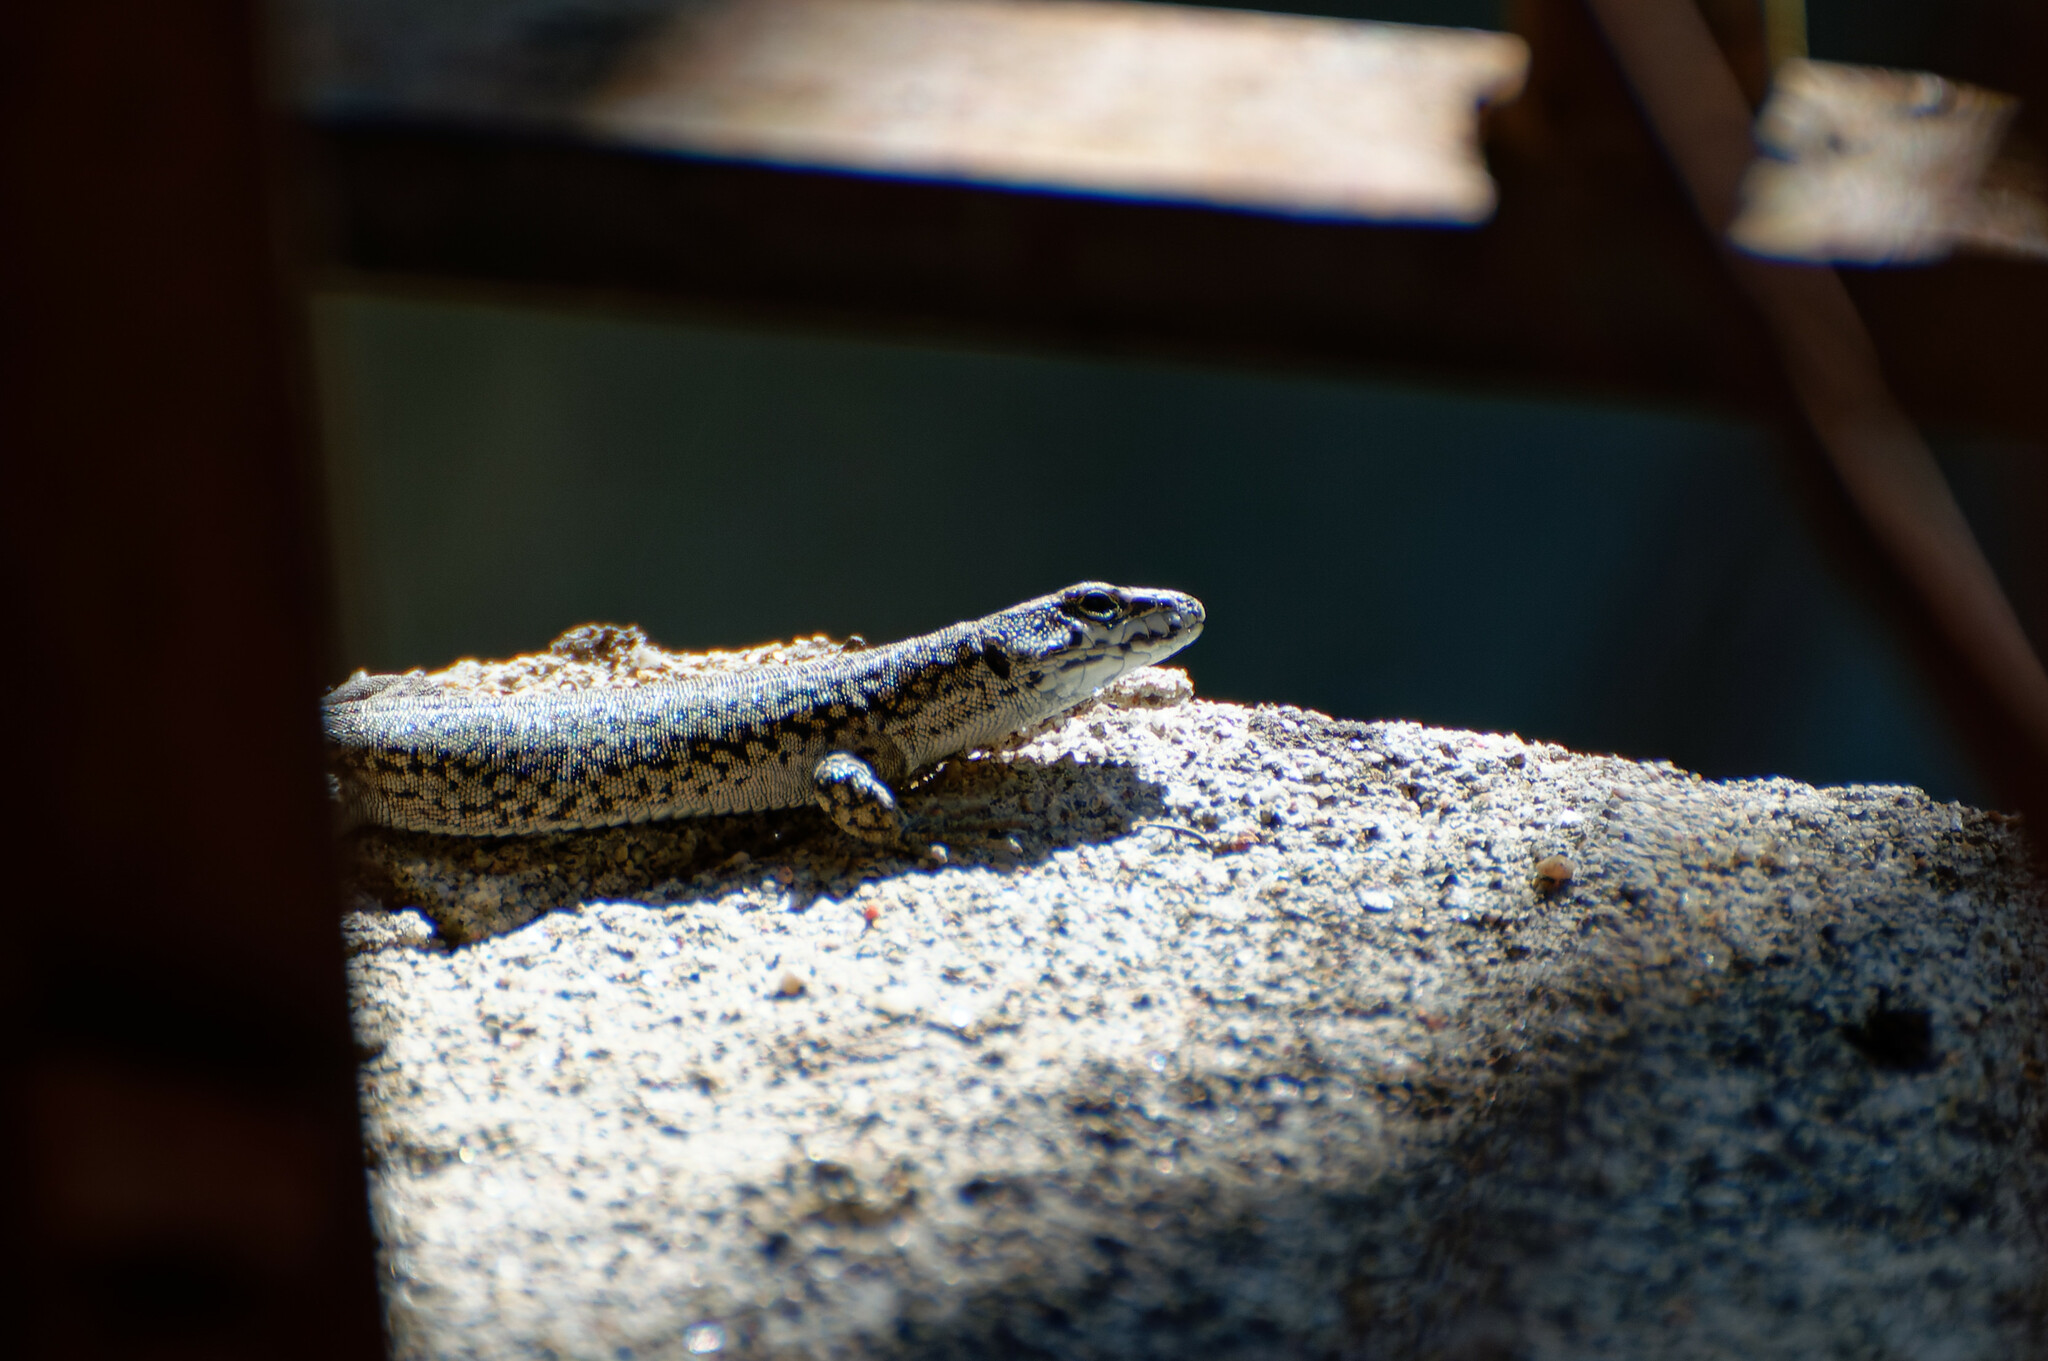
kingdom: Animalia
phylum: Chordata
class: Squamata
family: Lacertidae
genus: Podarcis
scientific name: Podarcis liolepis
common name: Catalonian wall lizard
